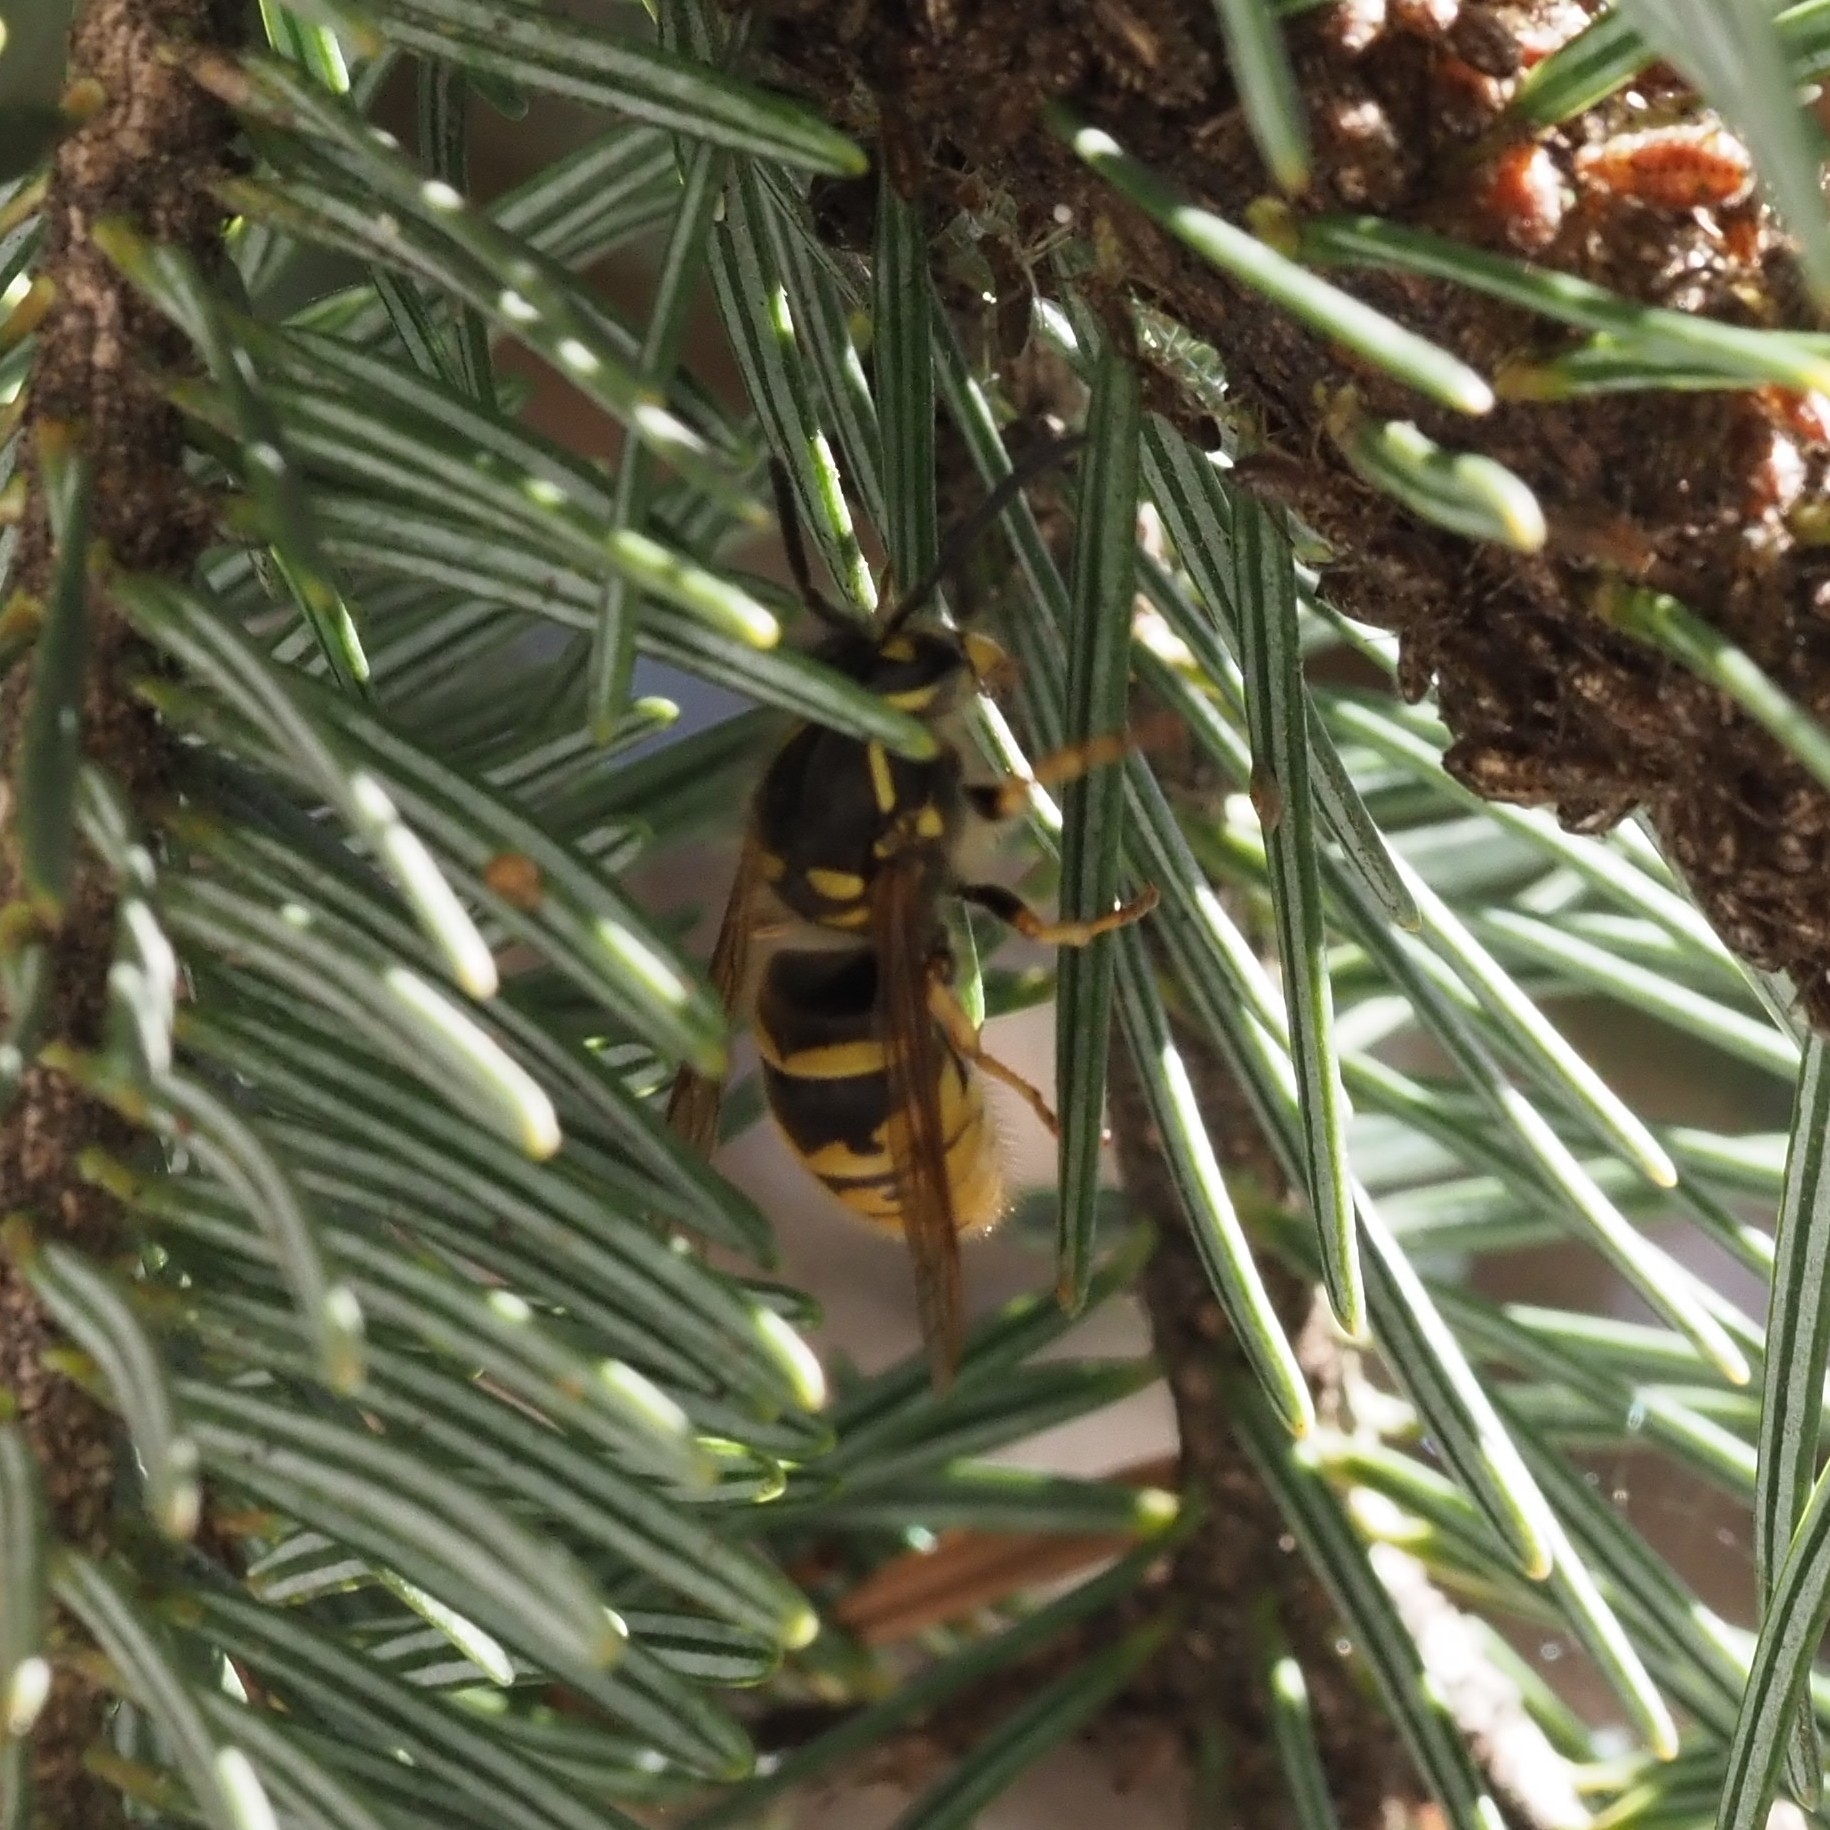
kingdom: Animalia
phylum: Arthropoda
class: Insecta
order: Hymenoptera
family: Vespidae
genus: Vespula
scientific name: Vespula vulgaris
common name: Common wasp
